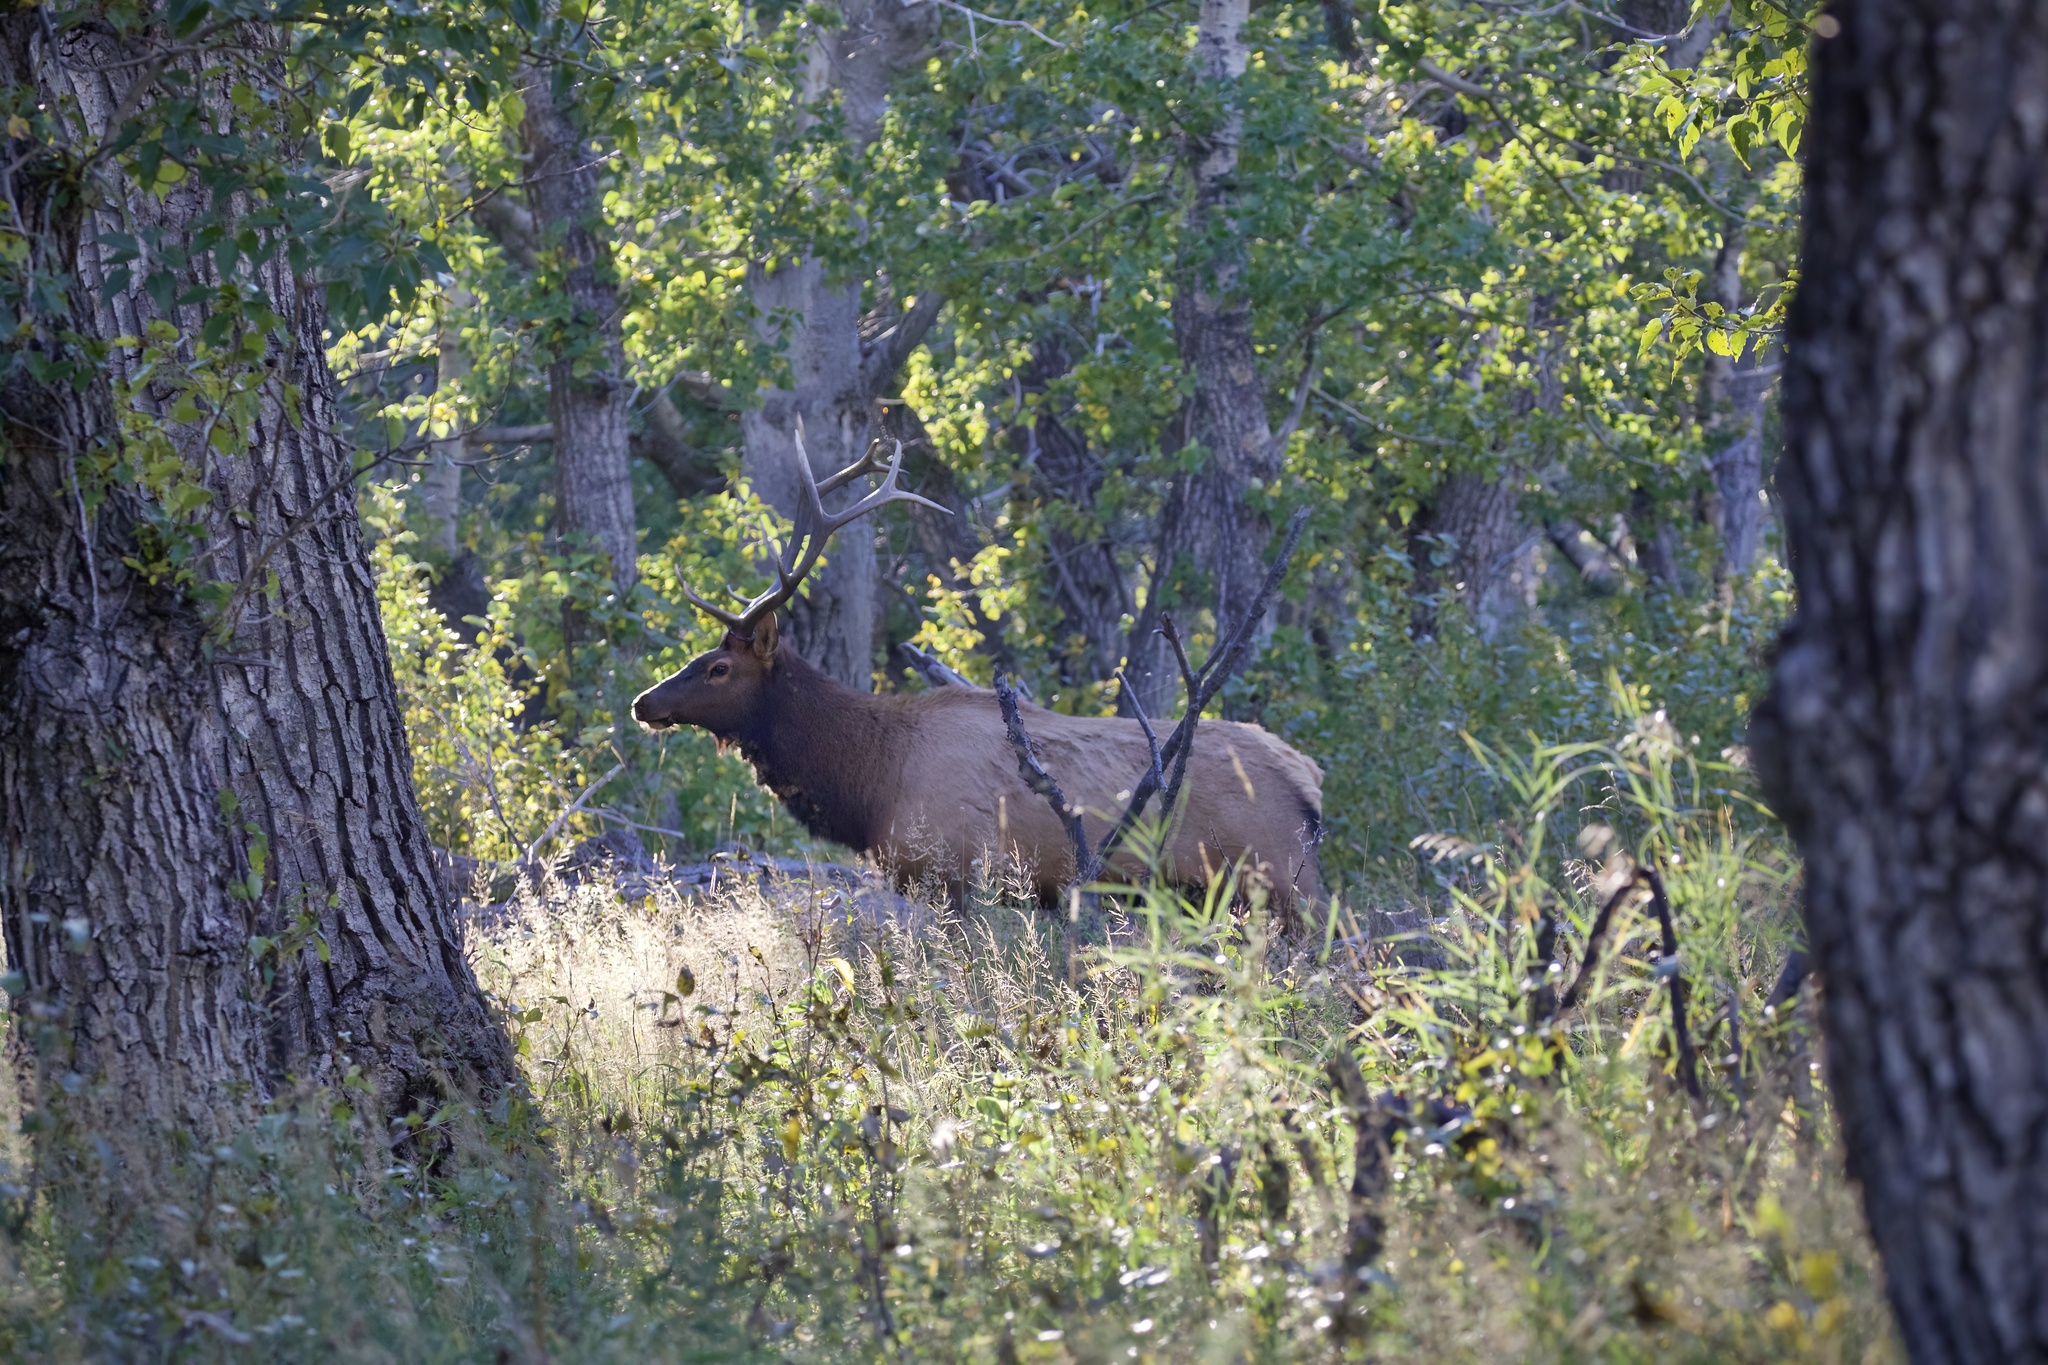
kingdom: Animalia
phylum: Chordata
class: Mammalia
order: Artiodactyla
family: Cervidae
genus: Cervus
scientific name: Cervus elaphus
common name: Red deer
